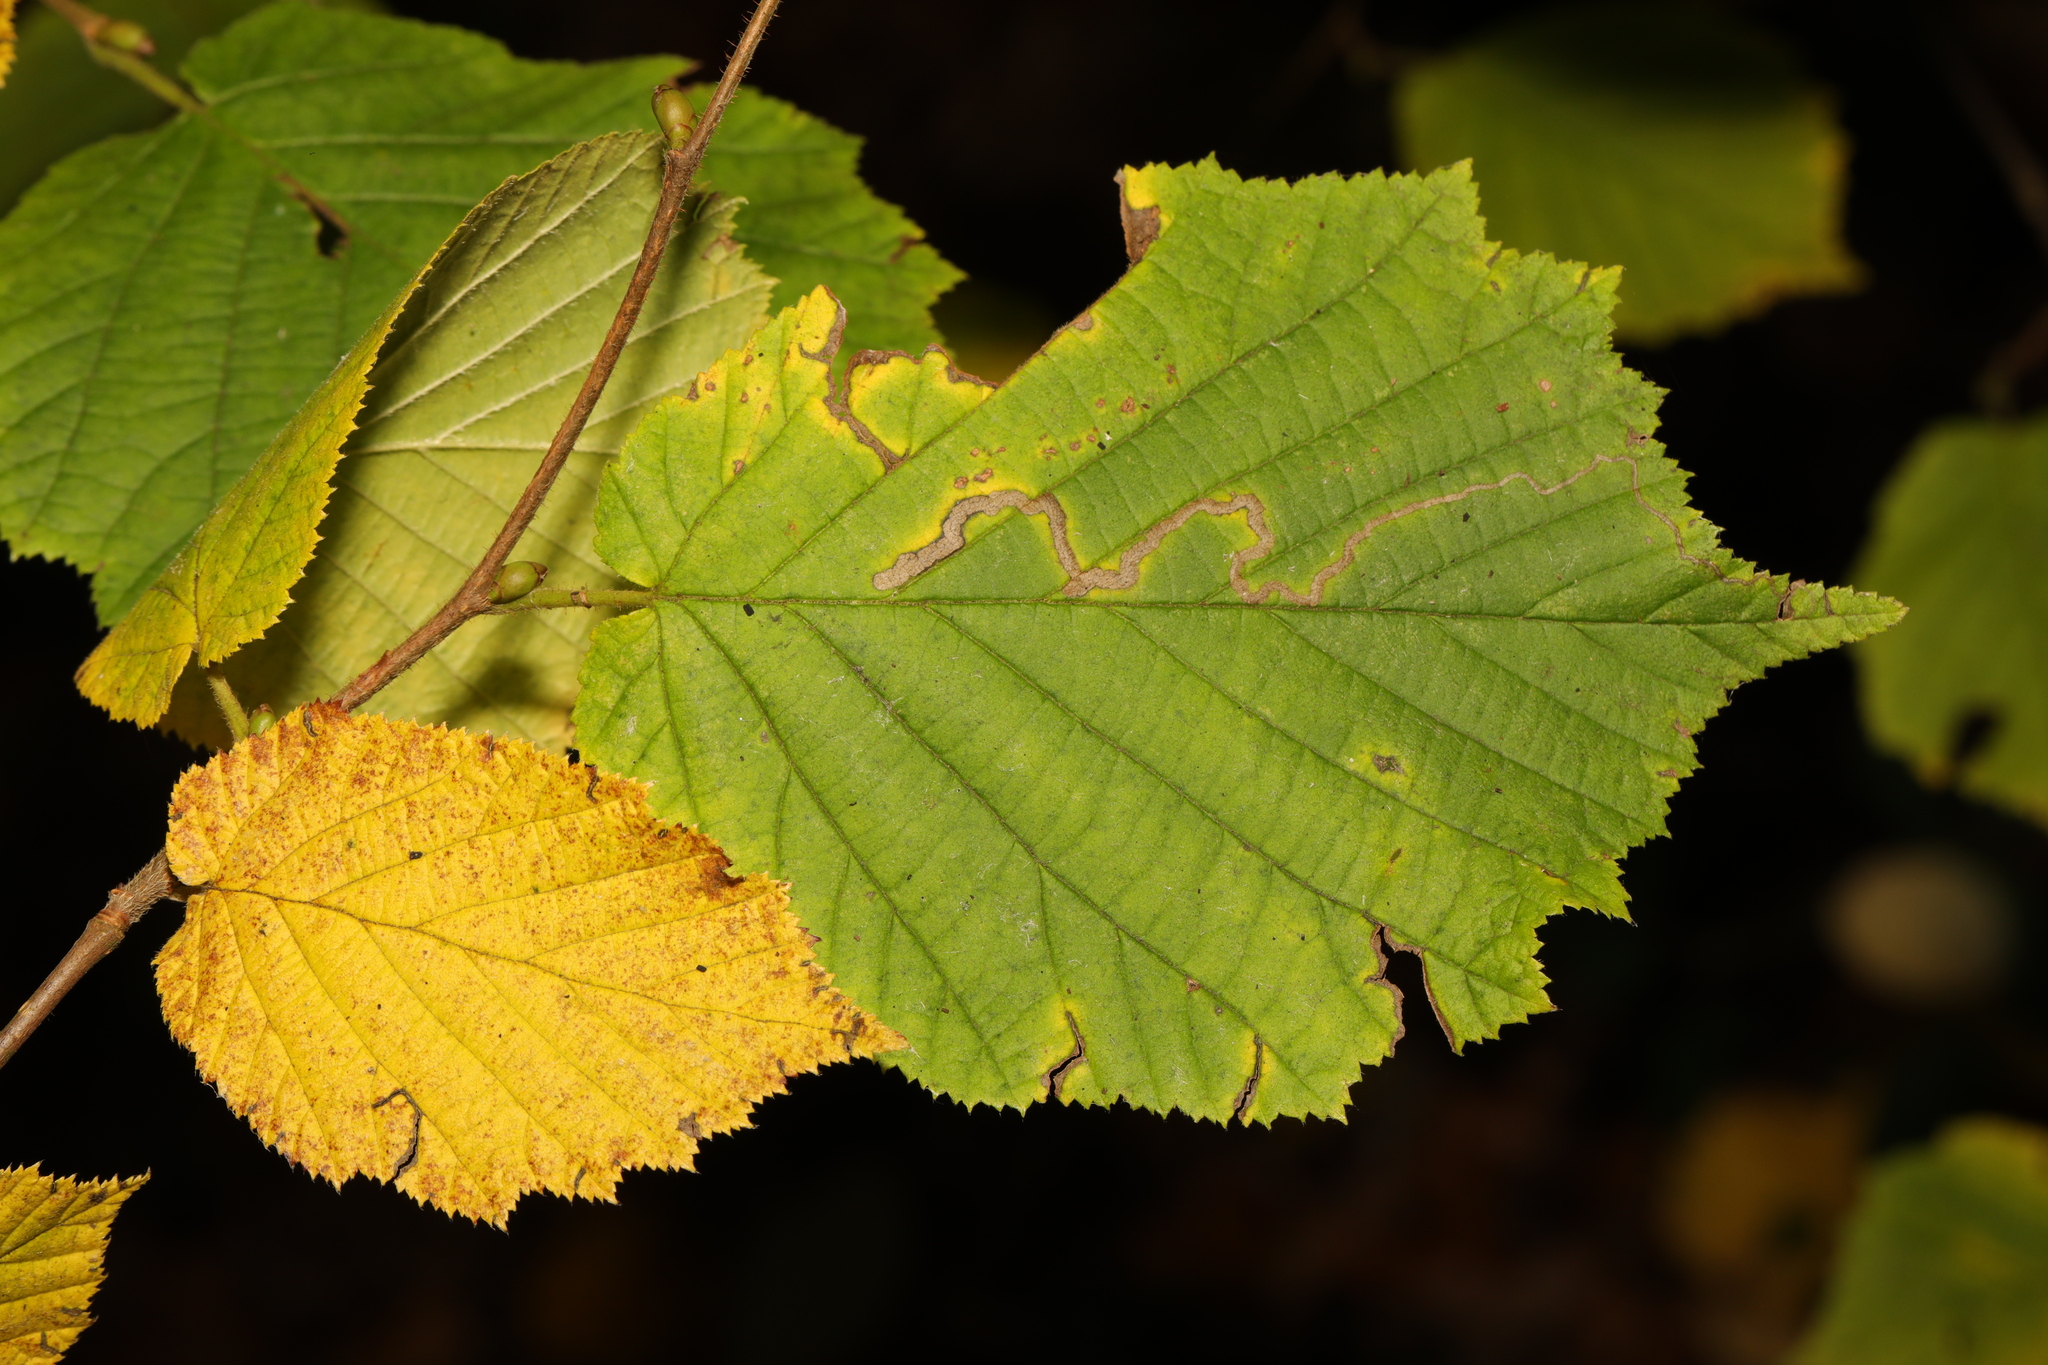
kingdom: Plantae
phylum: Tracheophyta
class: Magnoliopsida
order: Fagales
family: Betulaceae
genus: Corylus
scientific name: Corylus avellana
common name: European hazel
